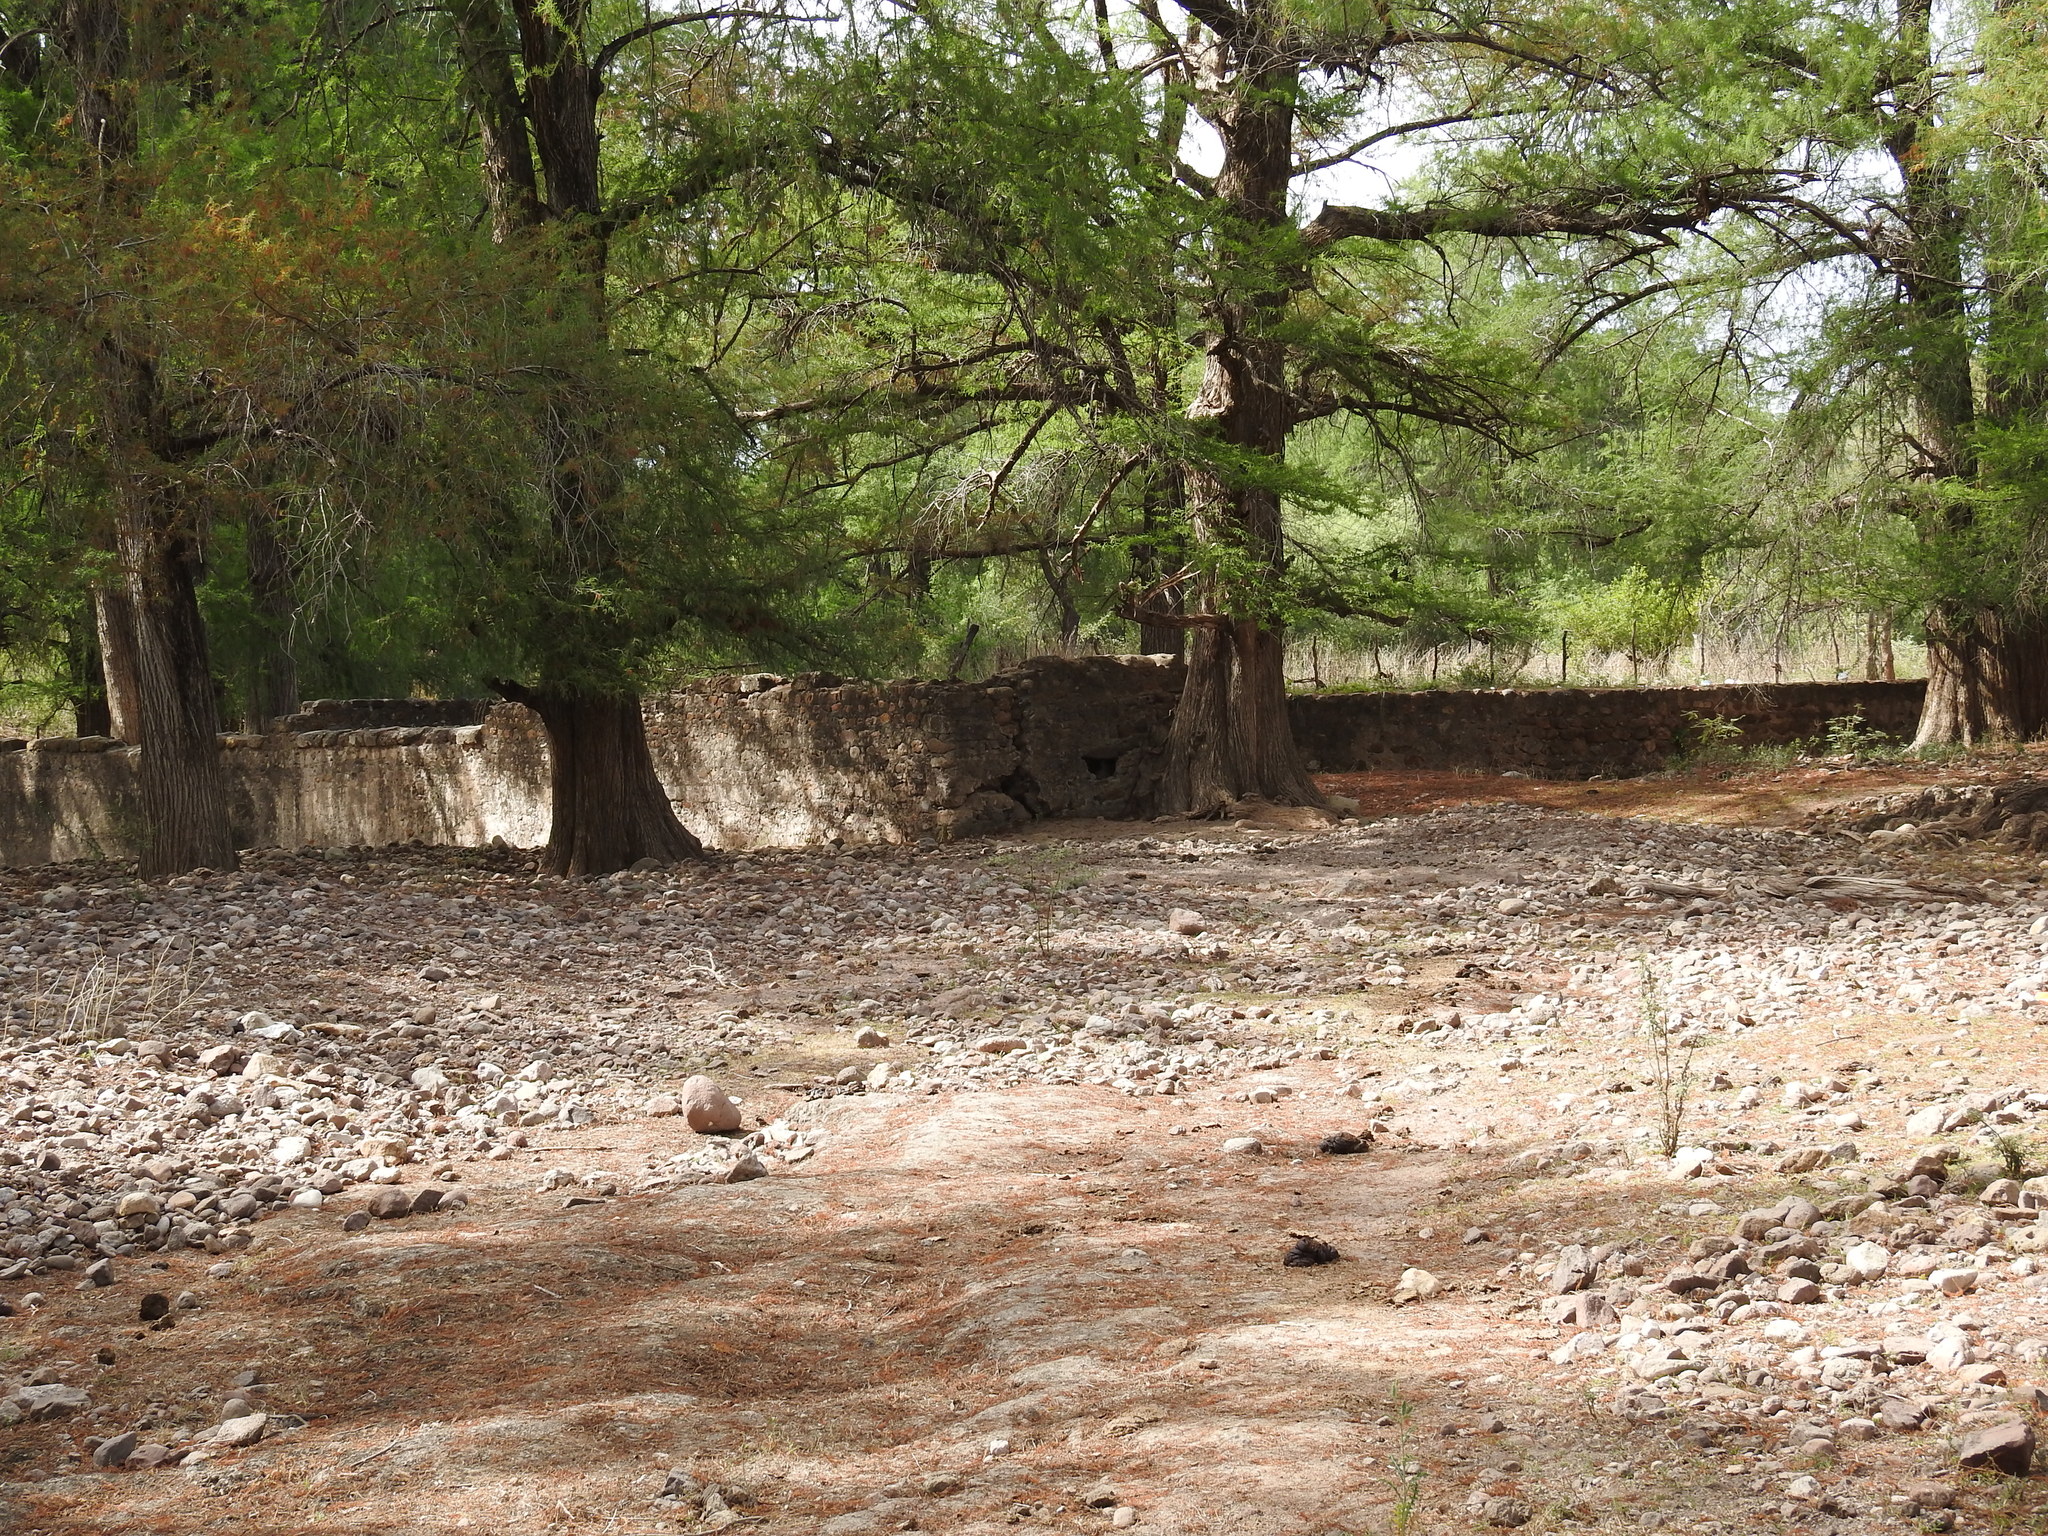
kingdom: Plantae
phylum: Tracheophyta
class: Pinopsida
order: Pinales
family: Cupressaceae
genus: Taxodium
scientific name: Taxodium mucronatum
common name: Montezume bald cypress
